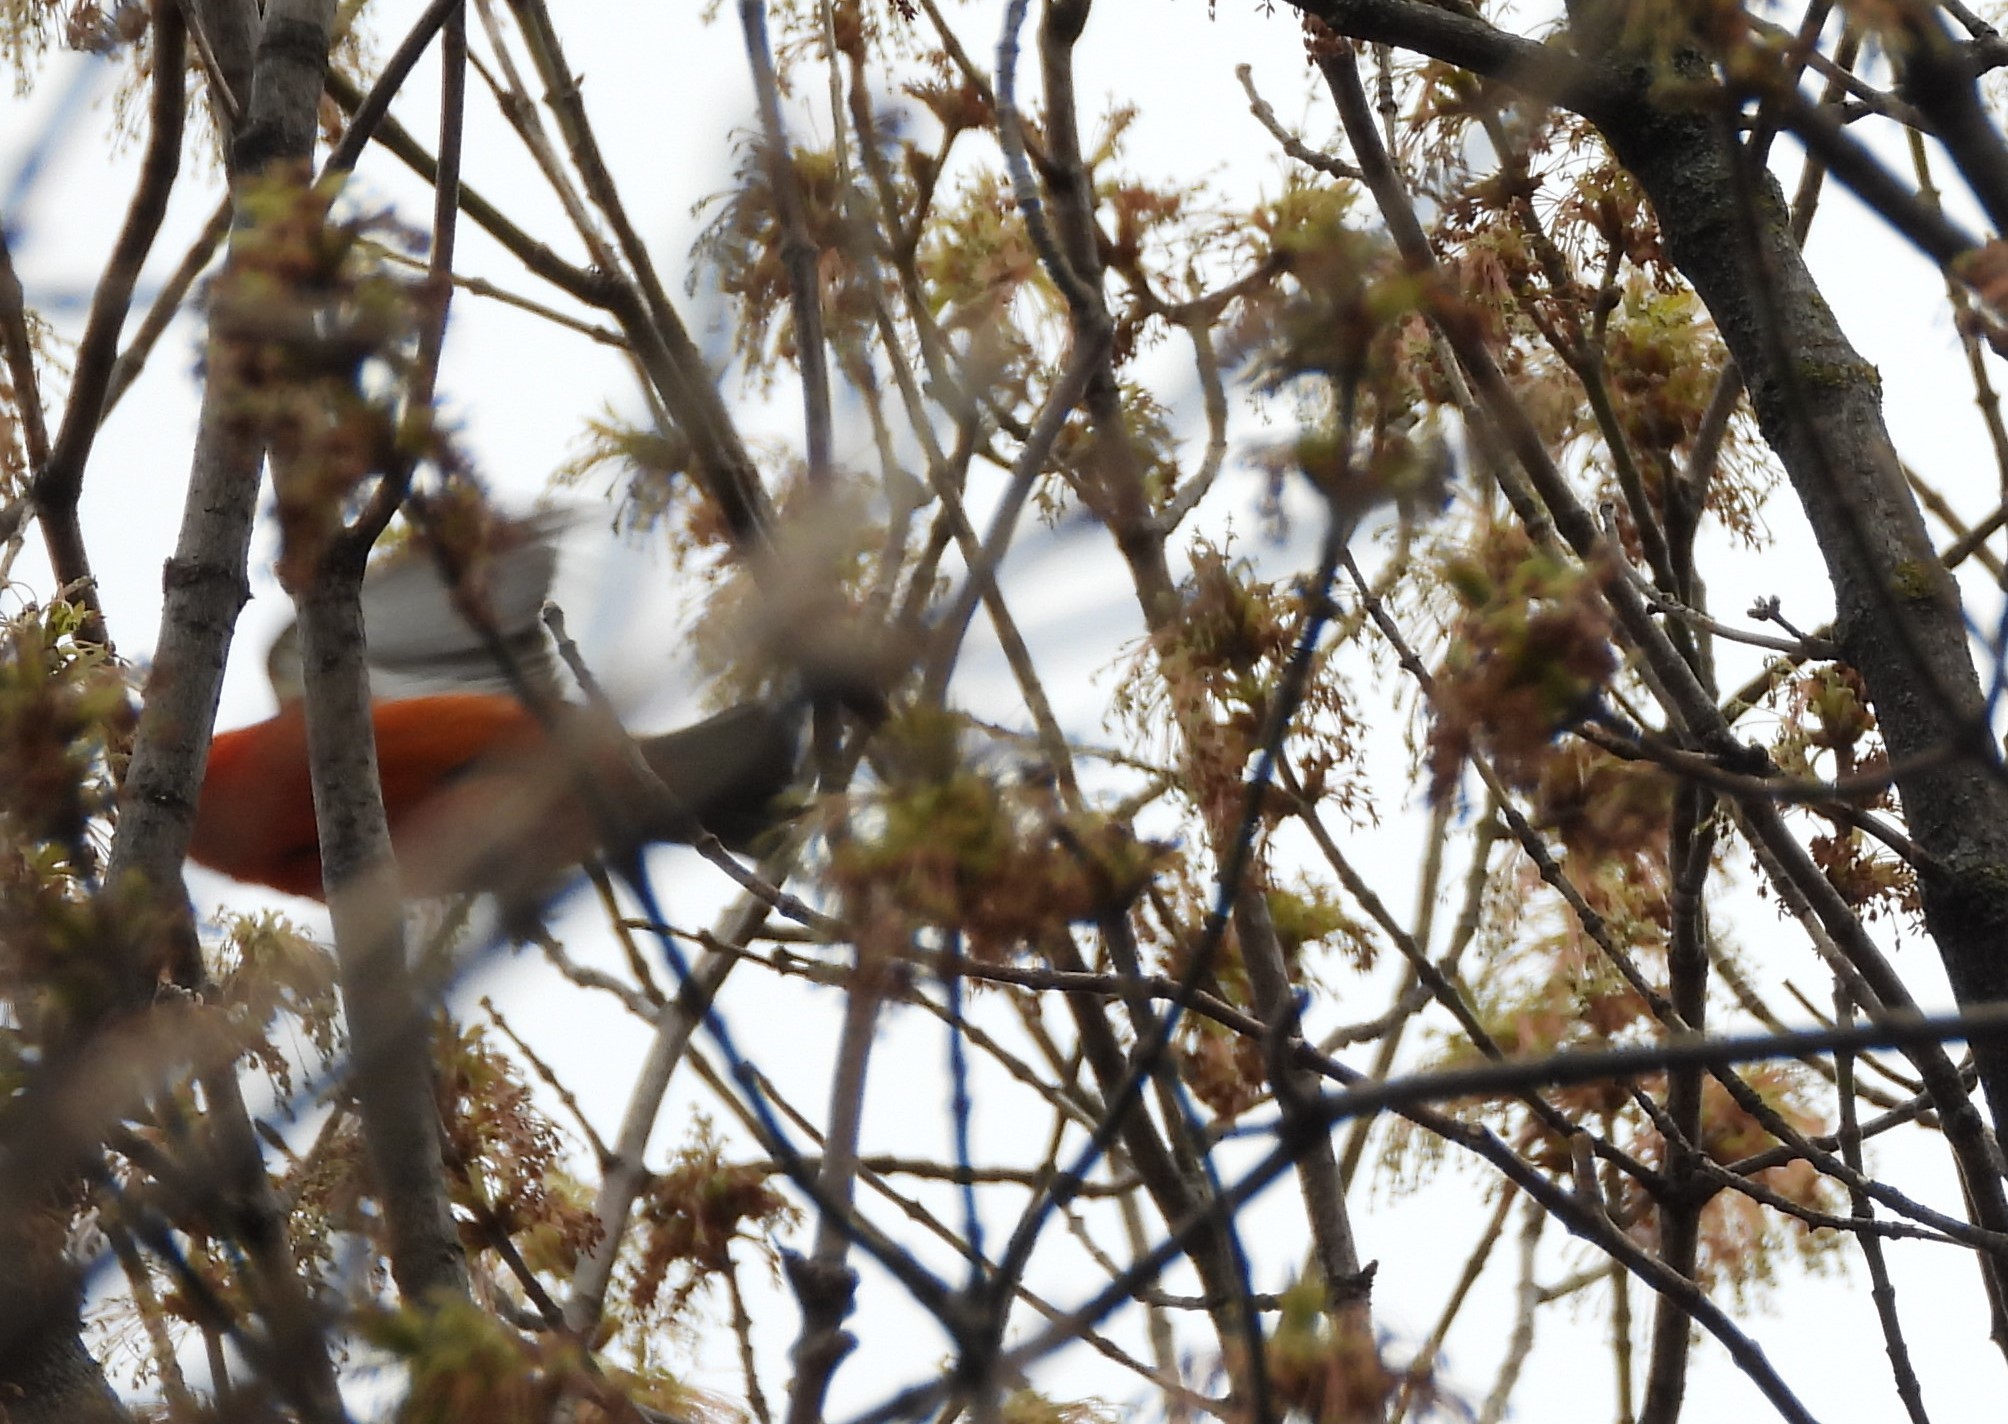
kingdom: Animalia
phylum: Chordata
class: Aves
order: Passeriformes
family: Cardinalidae
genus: Piranga
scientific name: Piranga olivacea
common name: Scarlet tanager
